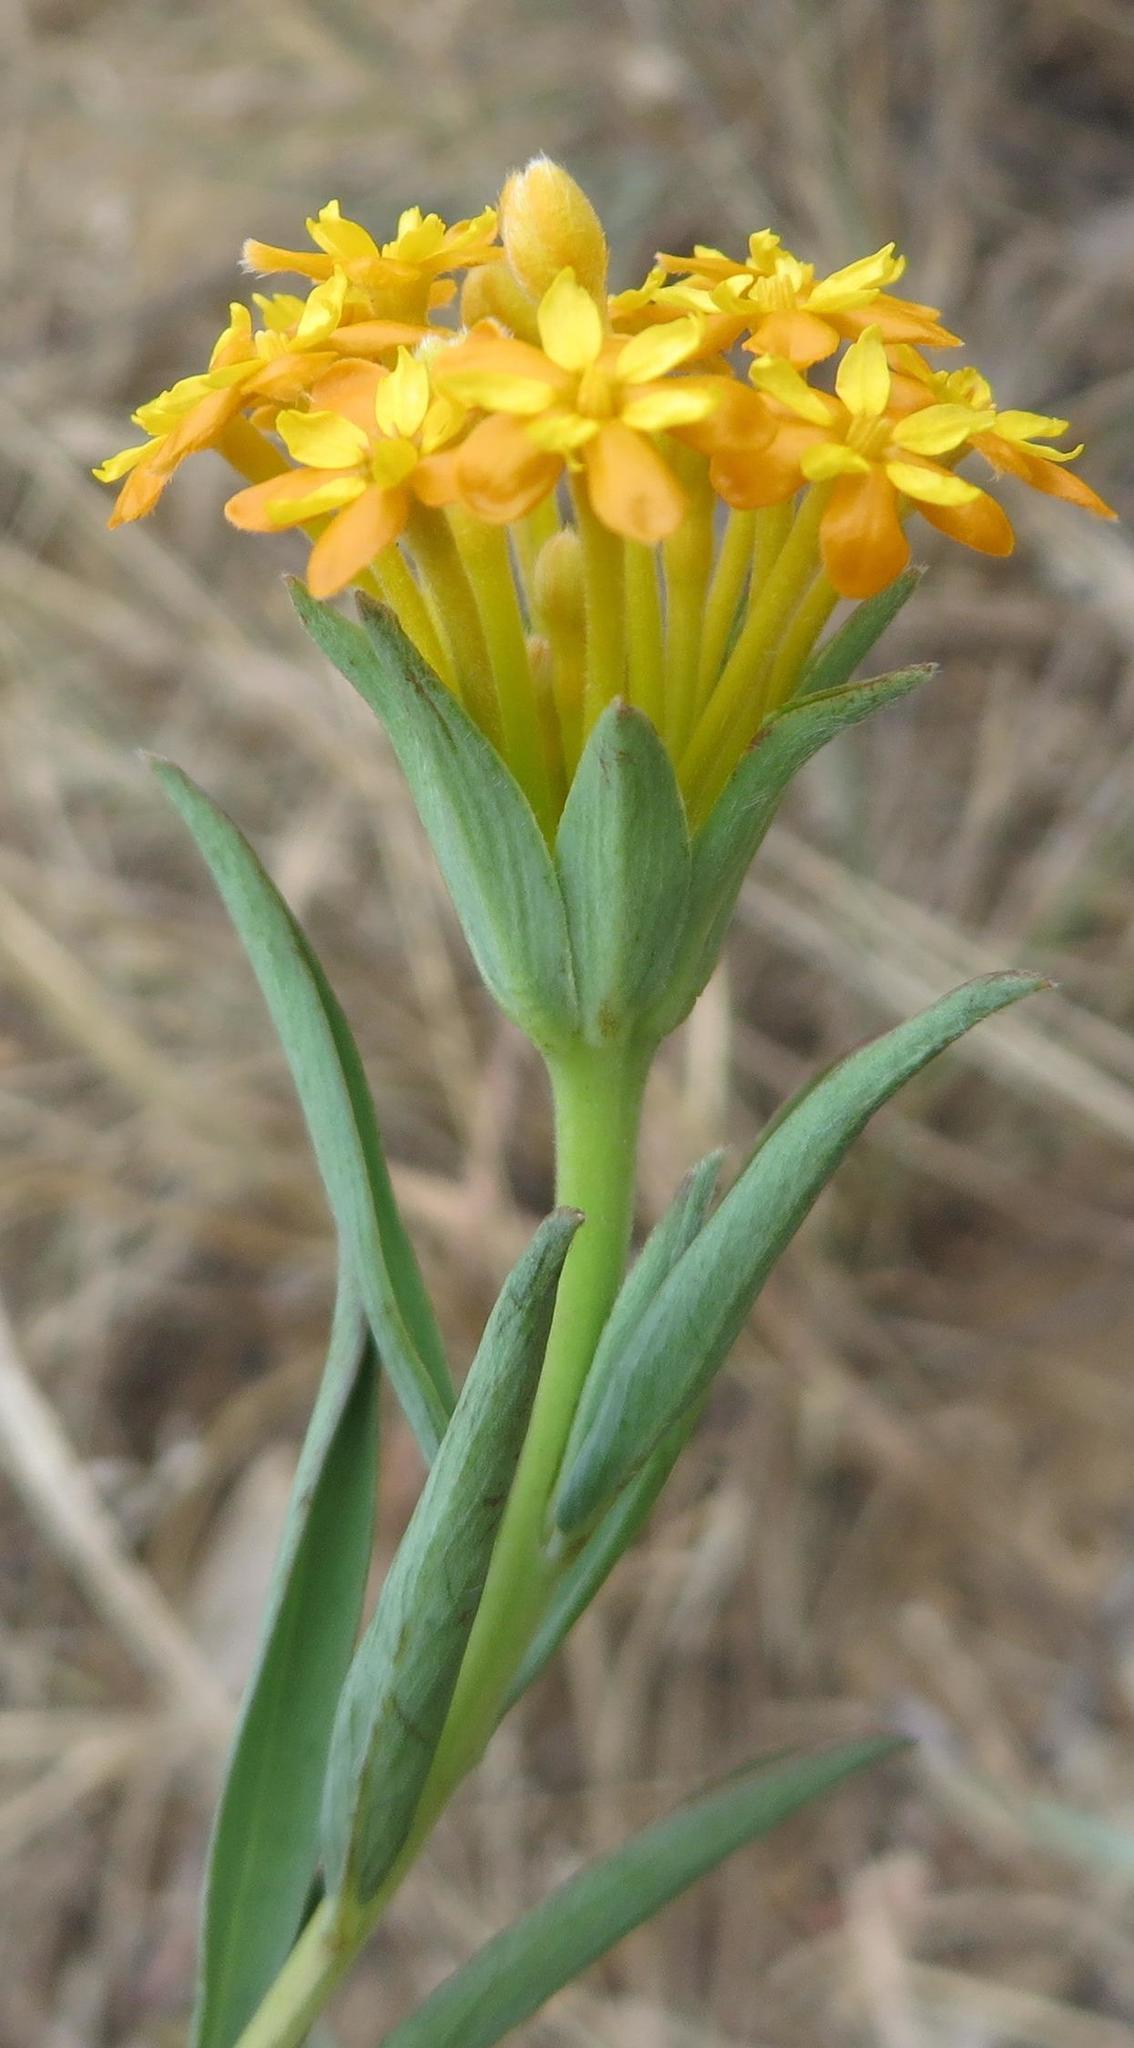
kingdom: Plantae
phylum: Tracheophyta
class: Magnoliopsida
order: Malvales
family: Thymelaeaceae
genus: Gnidia
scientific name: Gnidia capitata
